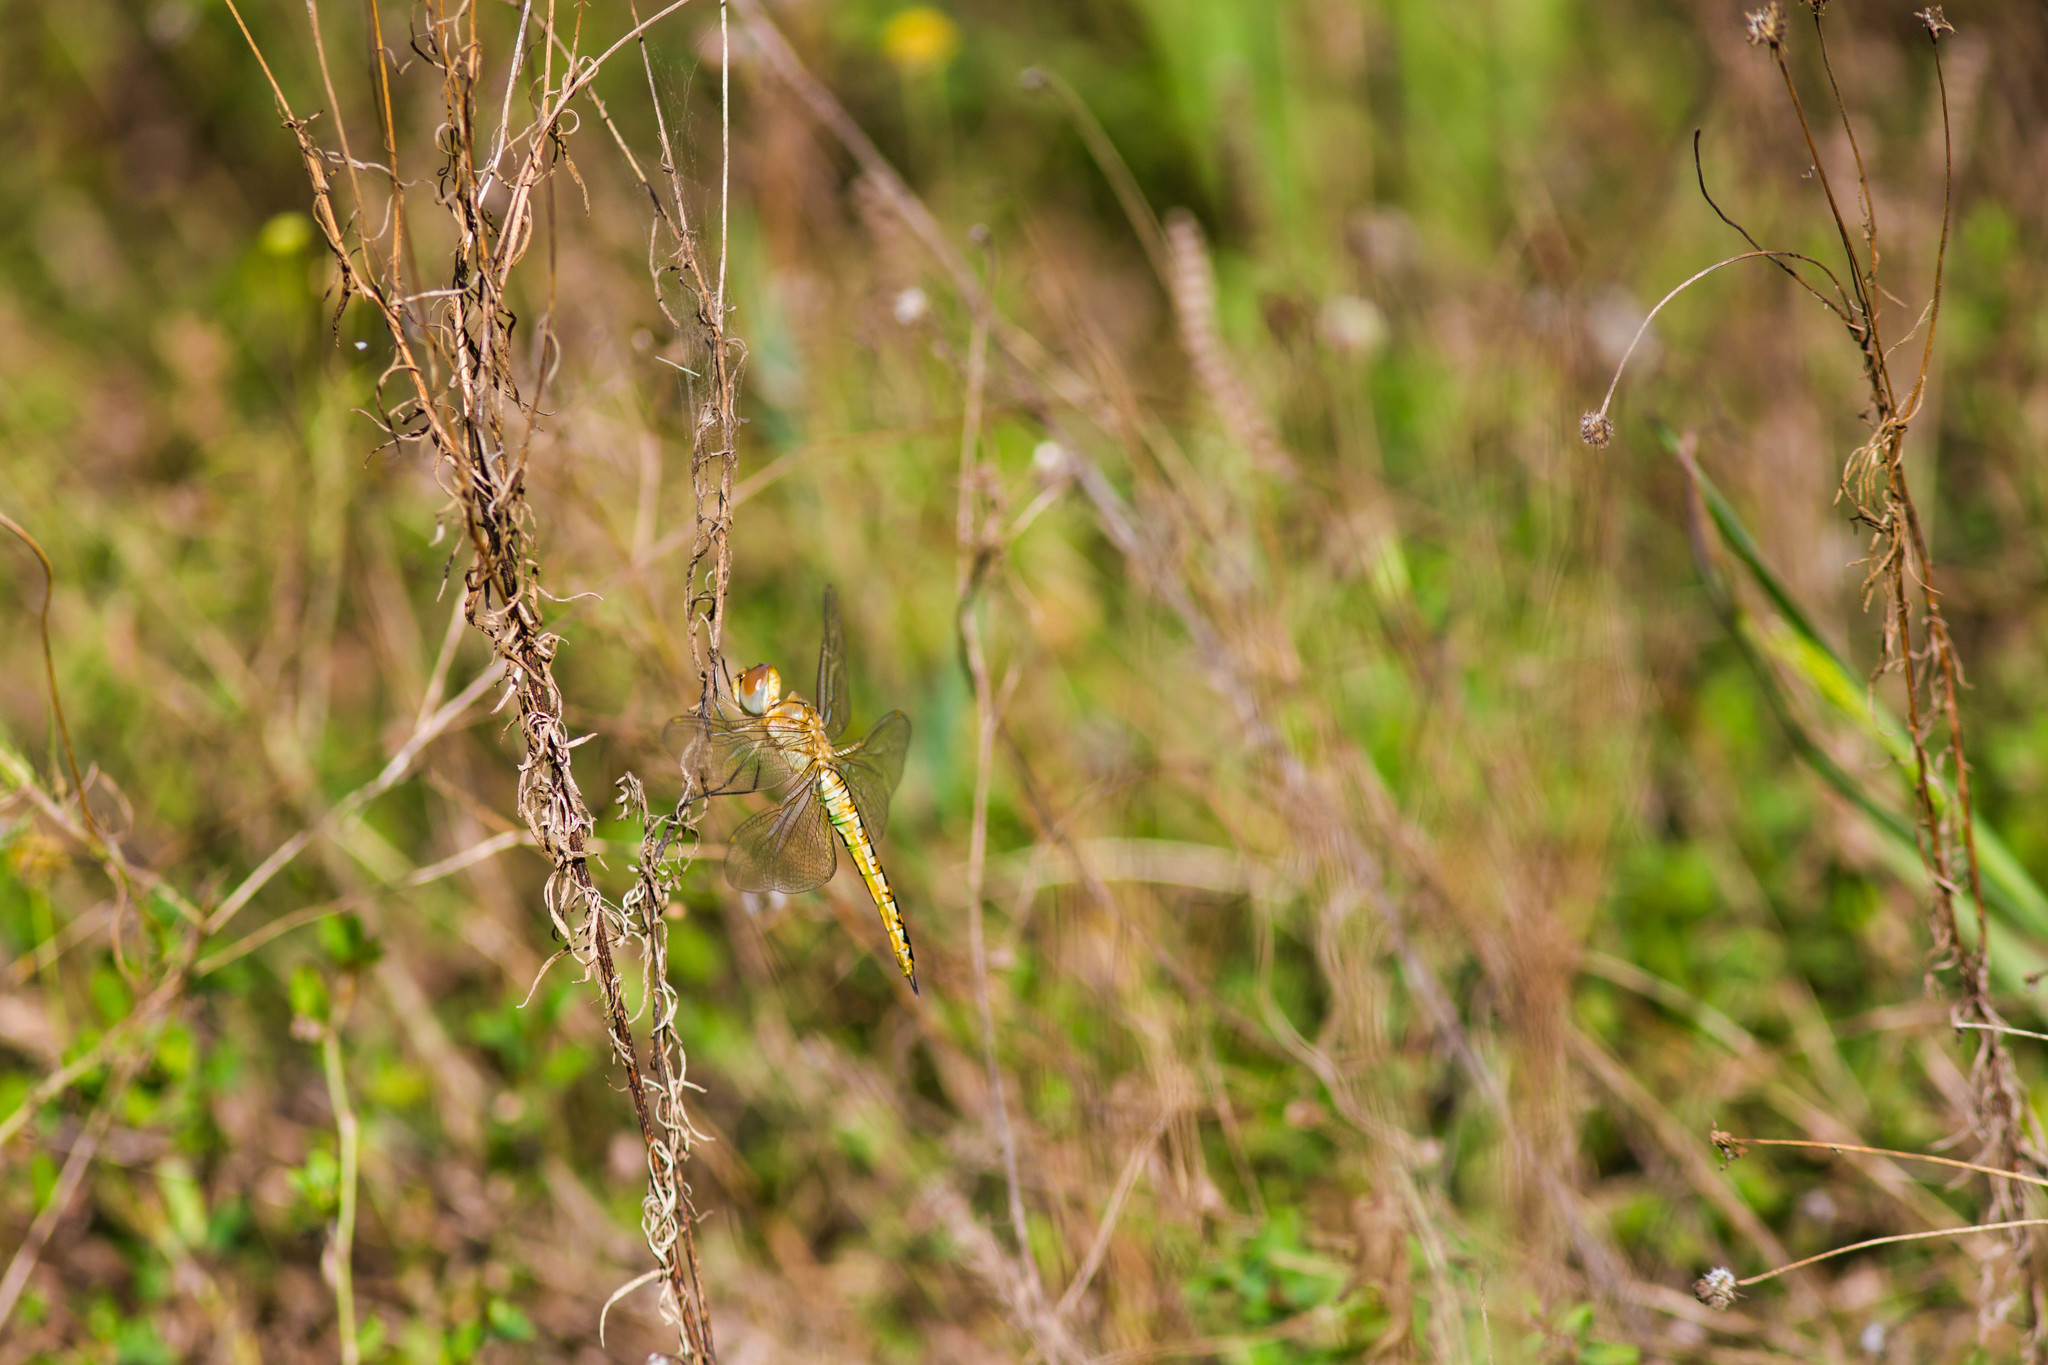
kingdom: Animalia
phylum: Arthropoda
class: Insecta
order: Odonata
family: Libellulidae
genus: Pantala
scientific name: Pantala flavescens
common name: Wandering glider
